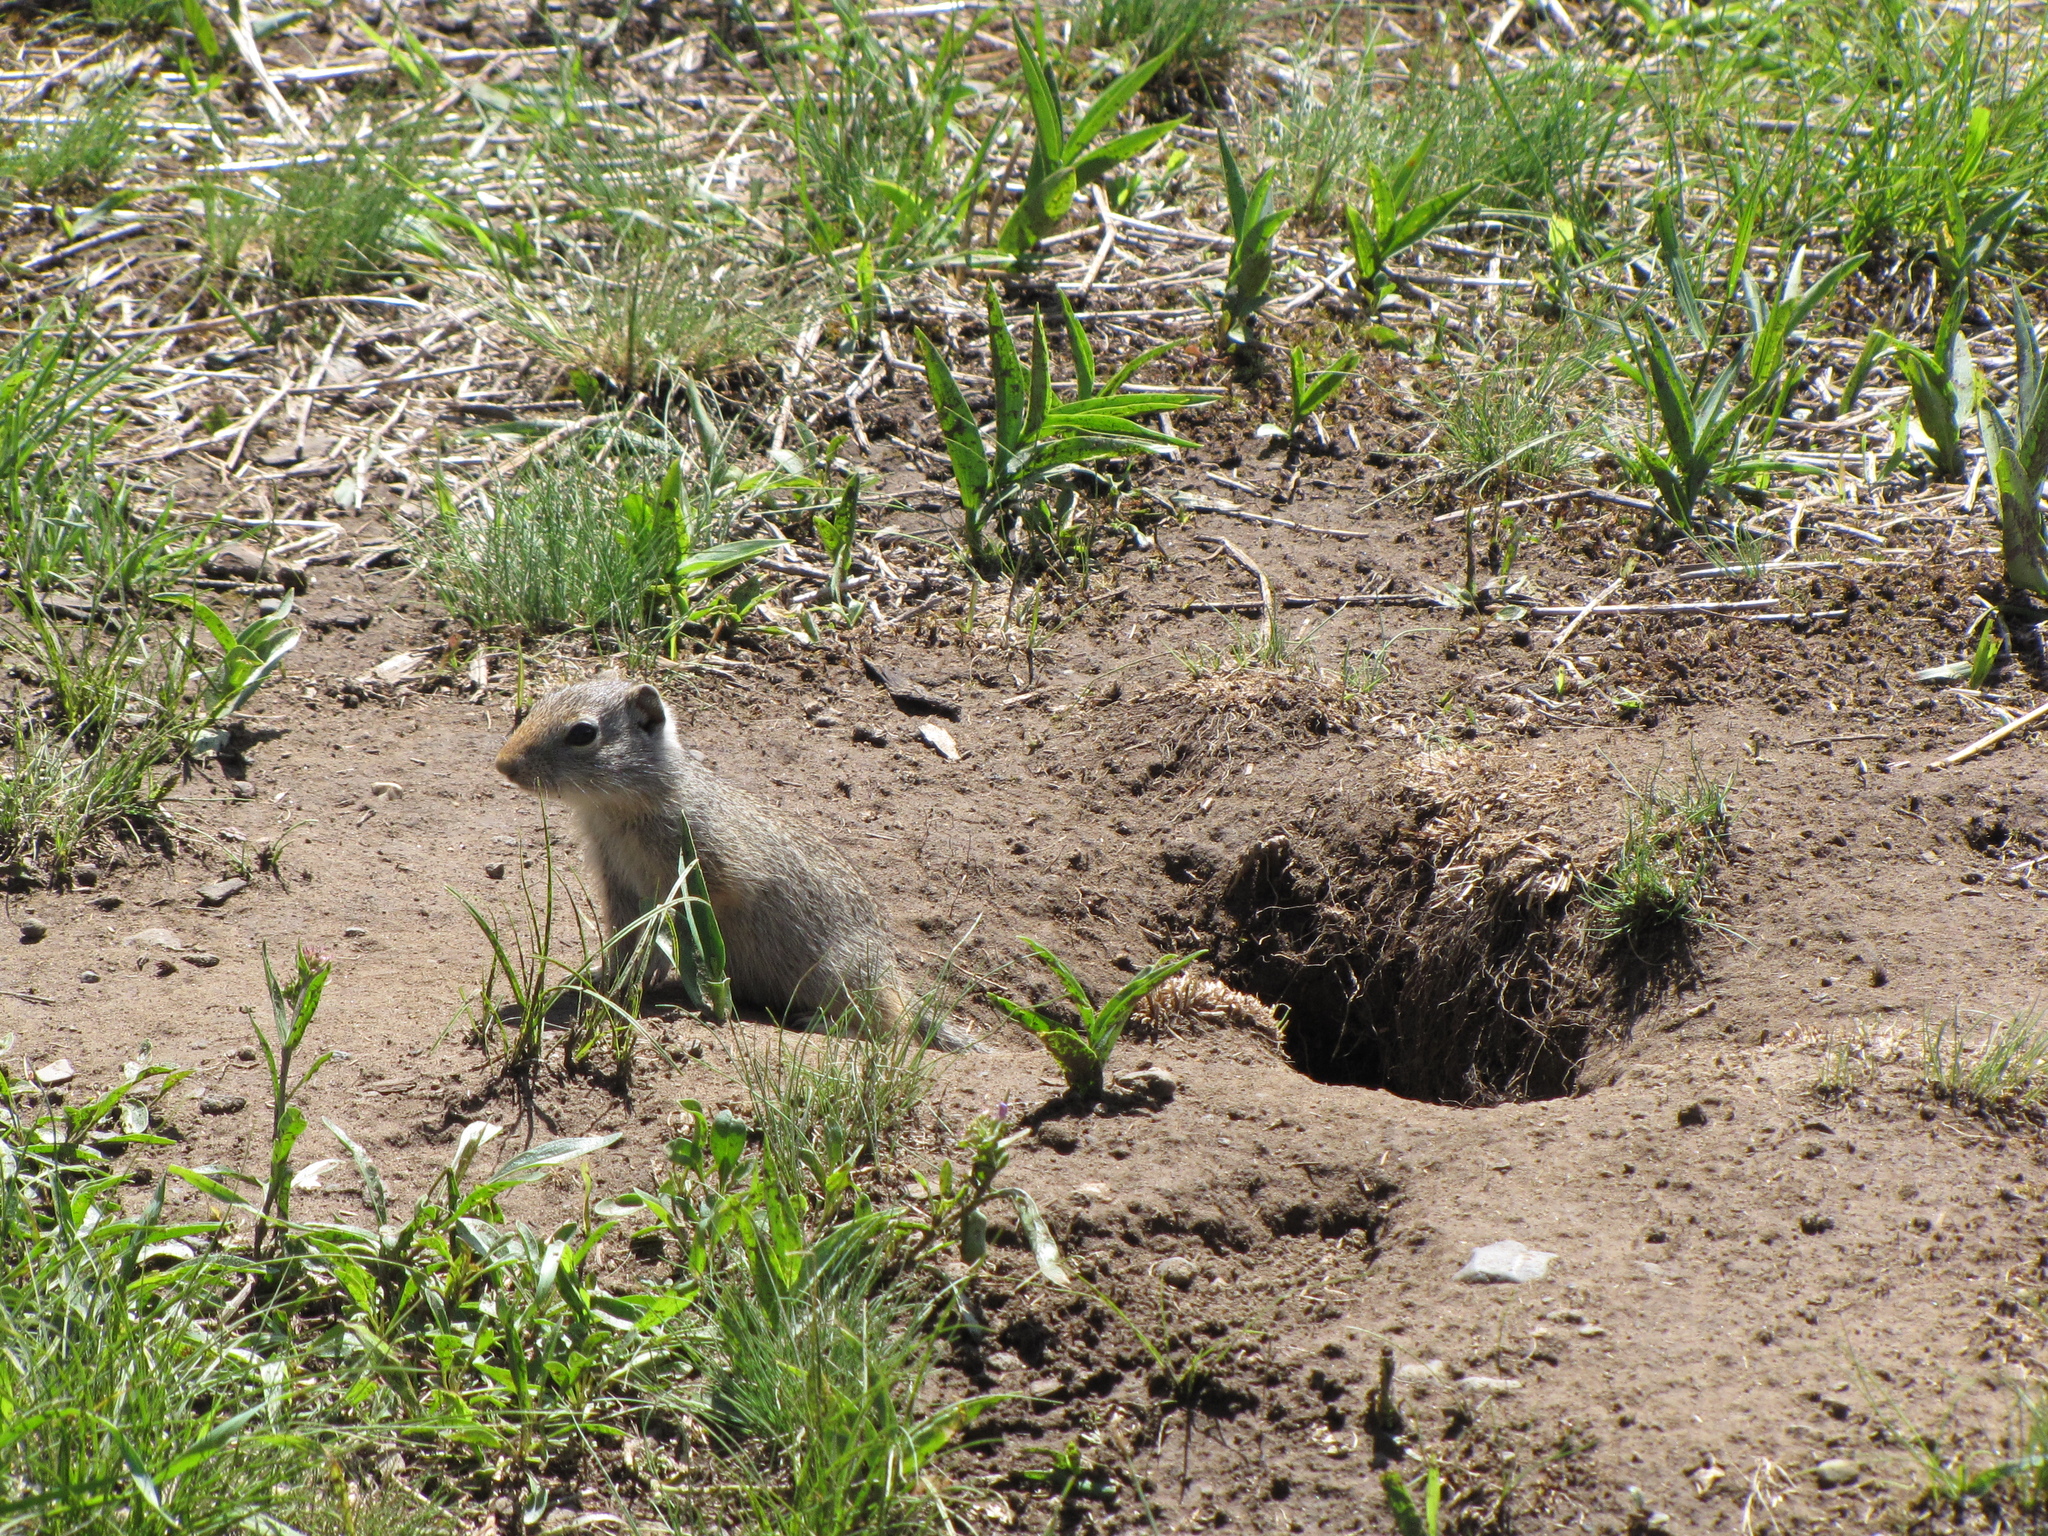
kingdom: Animalia
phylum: Chordata
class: Mammalia
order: Rodentia
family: Sciuridae
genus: Urocitellus
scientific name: Urocitellus armatus
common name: Uinta ground squirrel
